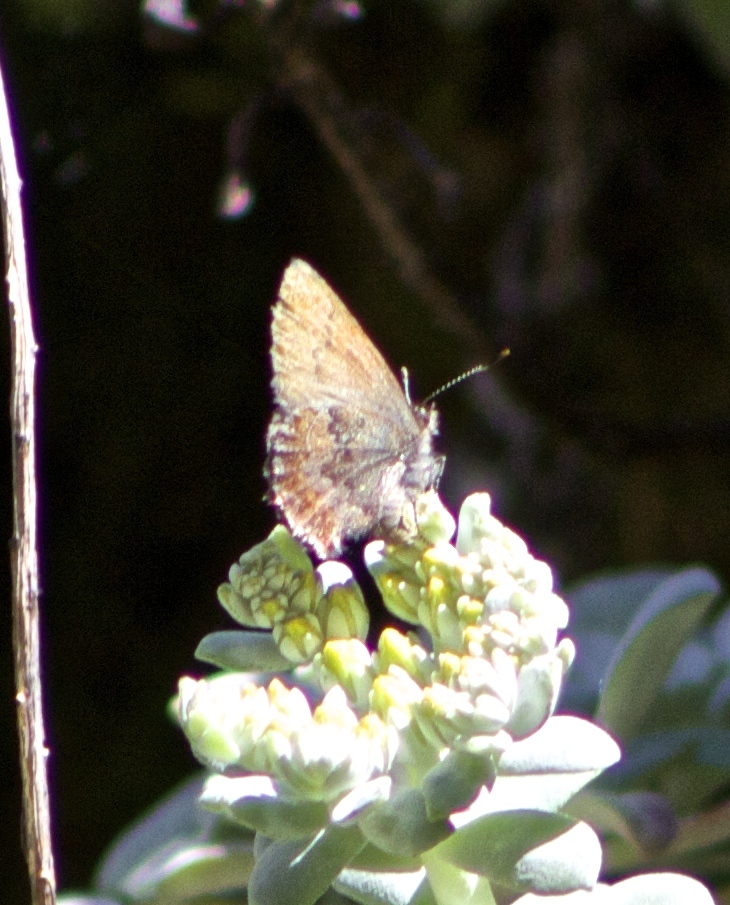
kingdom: Animalia
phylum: Arthropoda
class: Insecta
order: Lepidoptera
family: Lycaenidae
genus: Callophrys
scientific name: Callophrys mossii
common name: Moss' elfin
